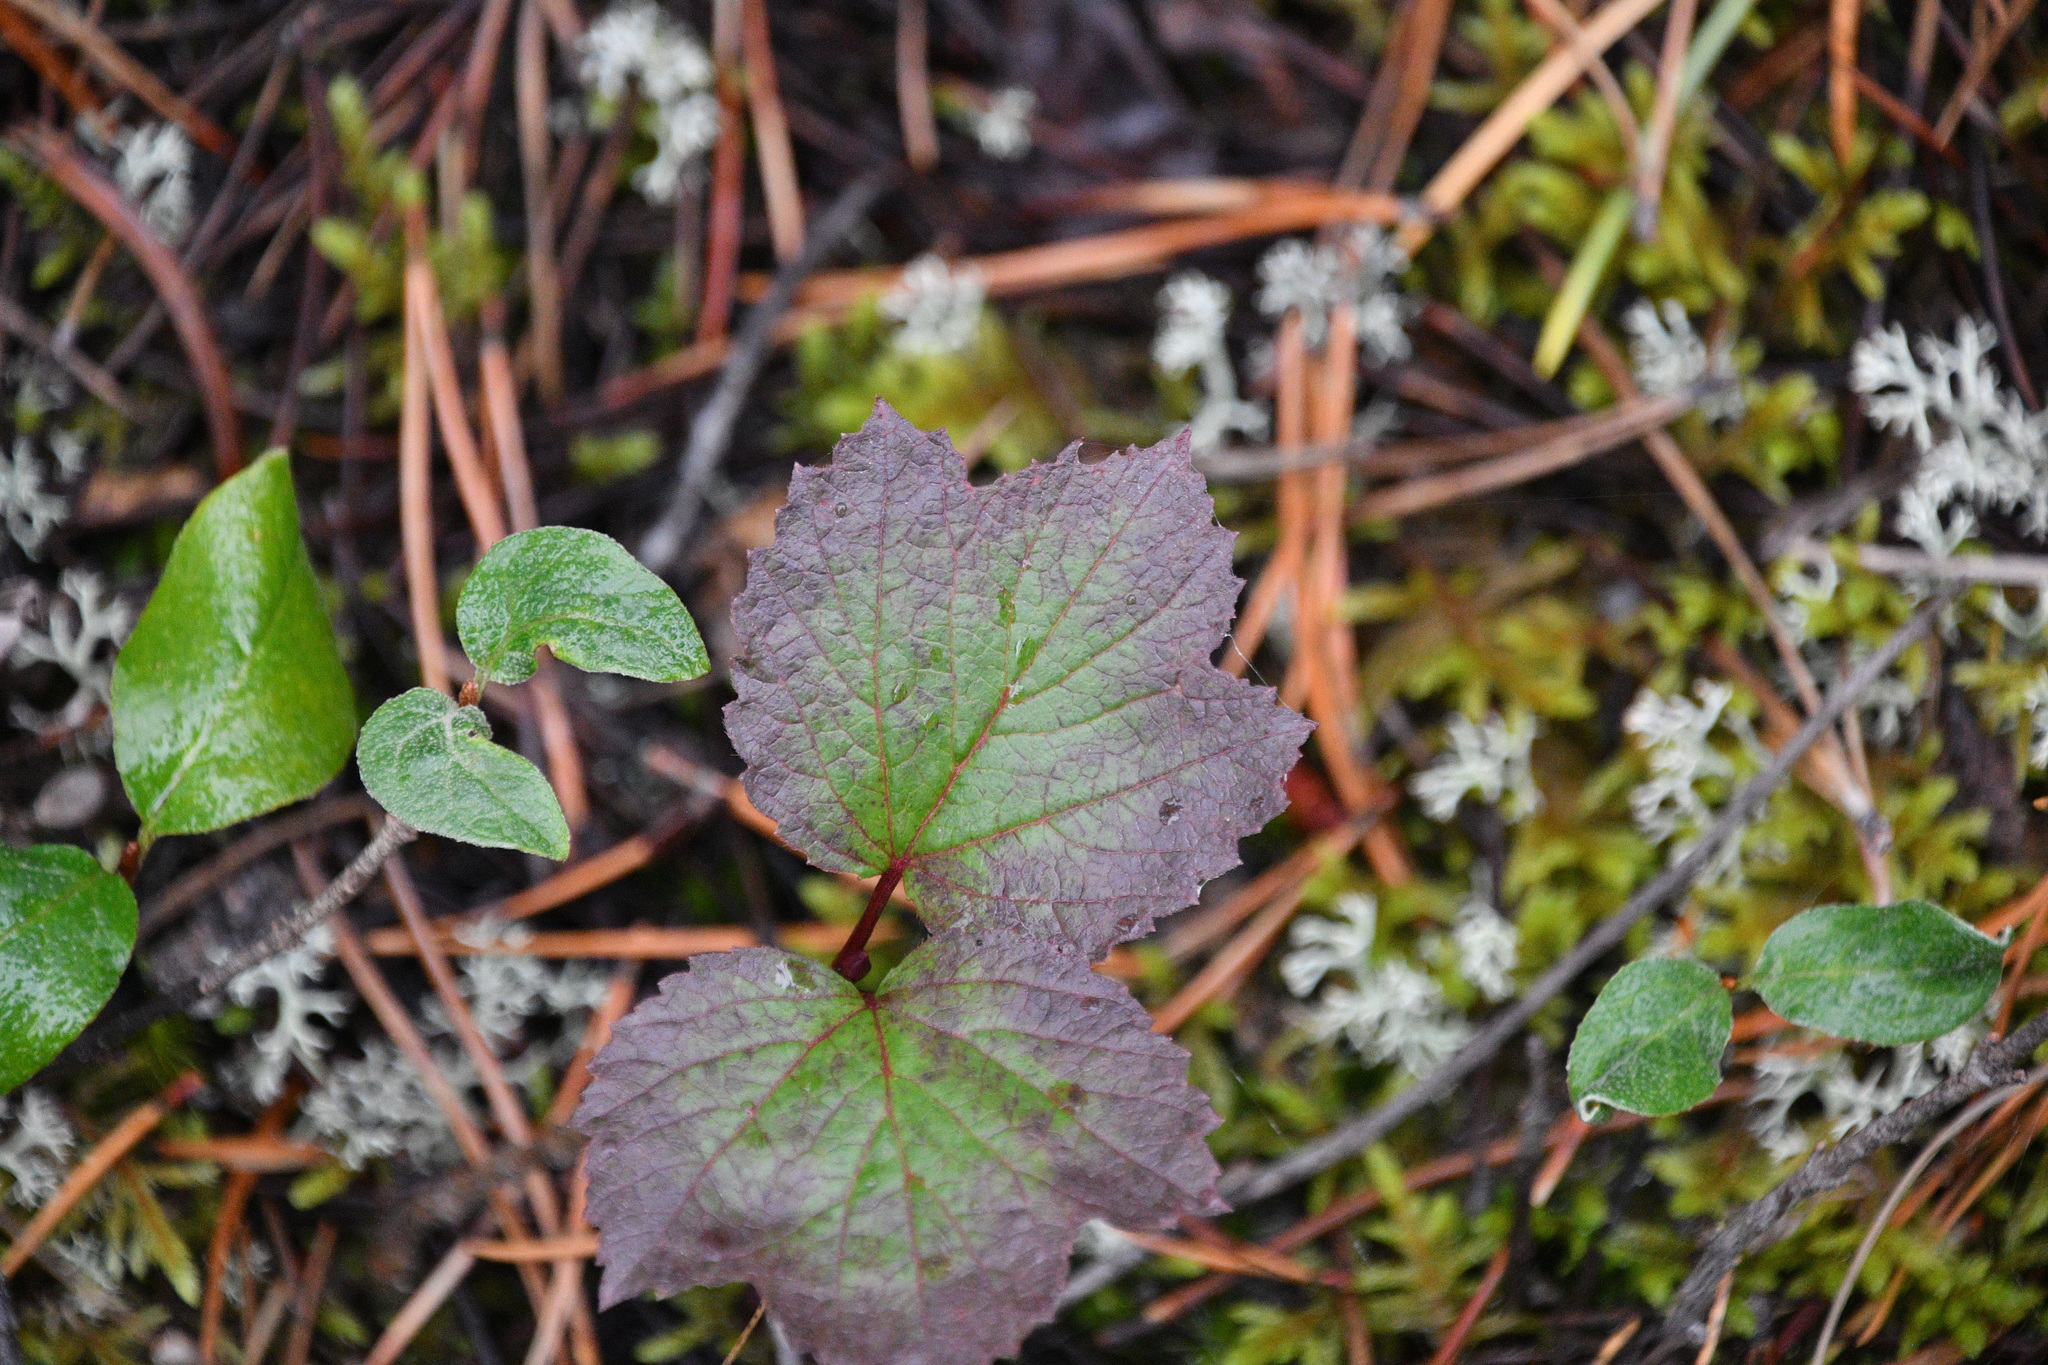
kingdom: Plantae
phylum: Tracheophyta
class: Magnoliopsida
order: Dipsacales
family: Viburnaceae
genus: Viburnum
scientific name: Viburnum edule
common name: Mooseberry
